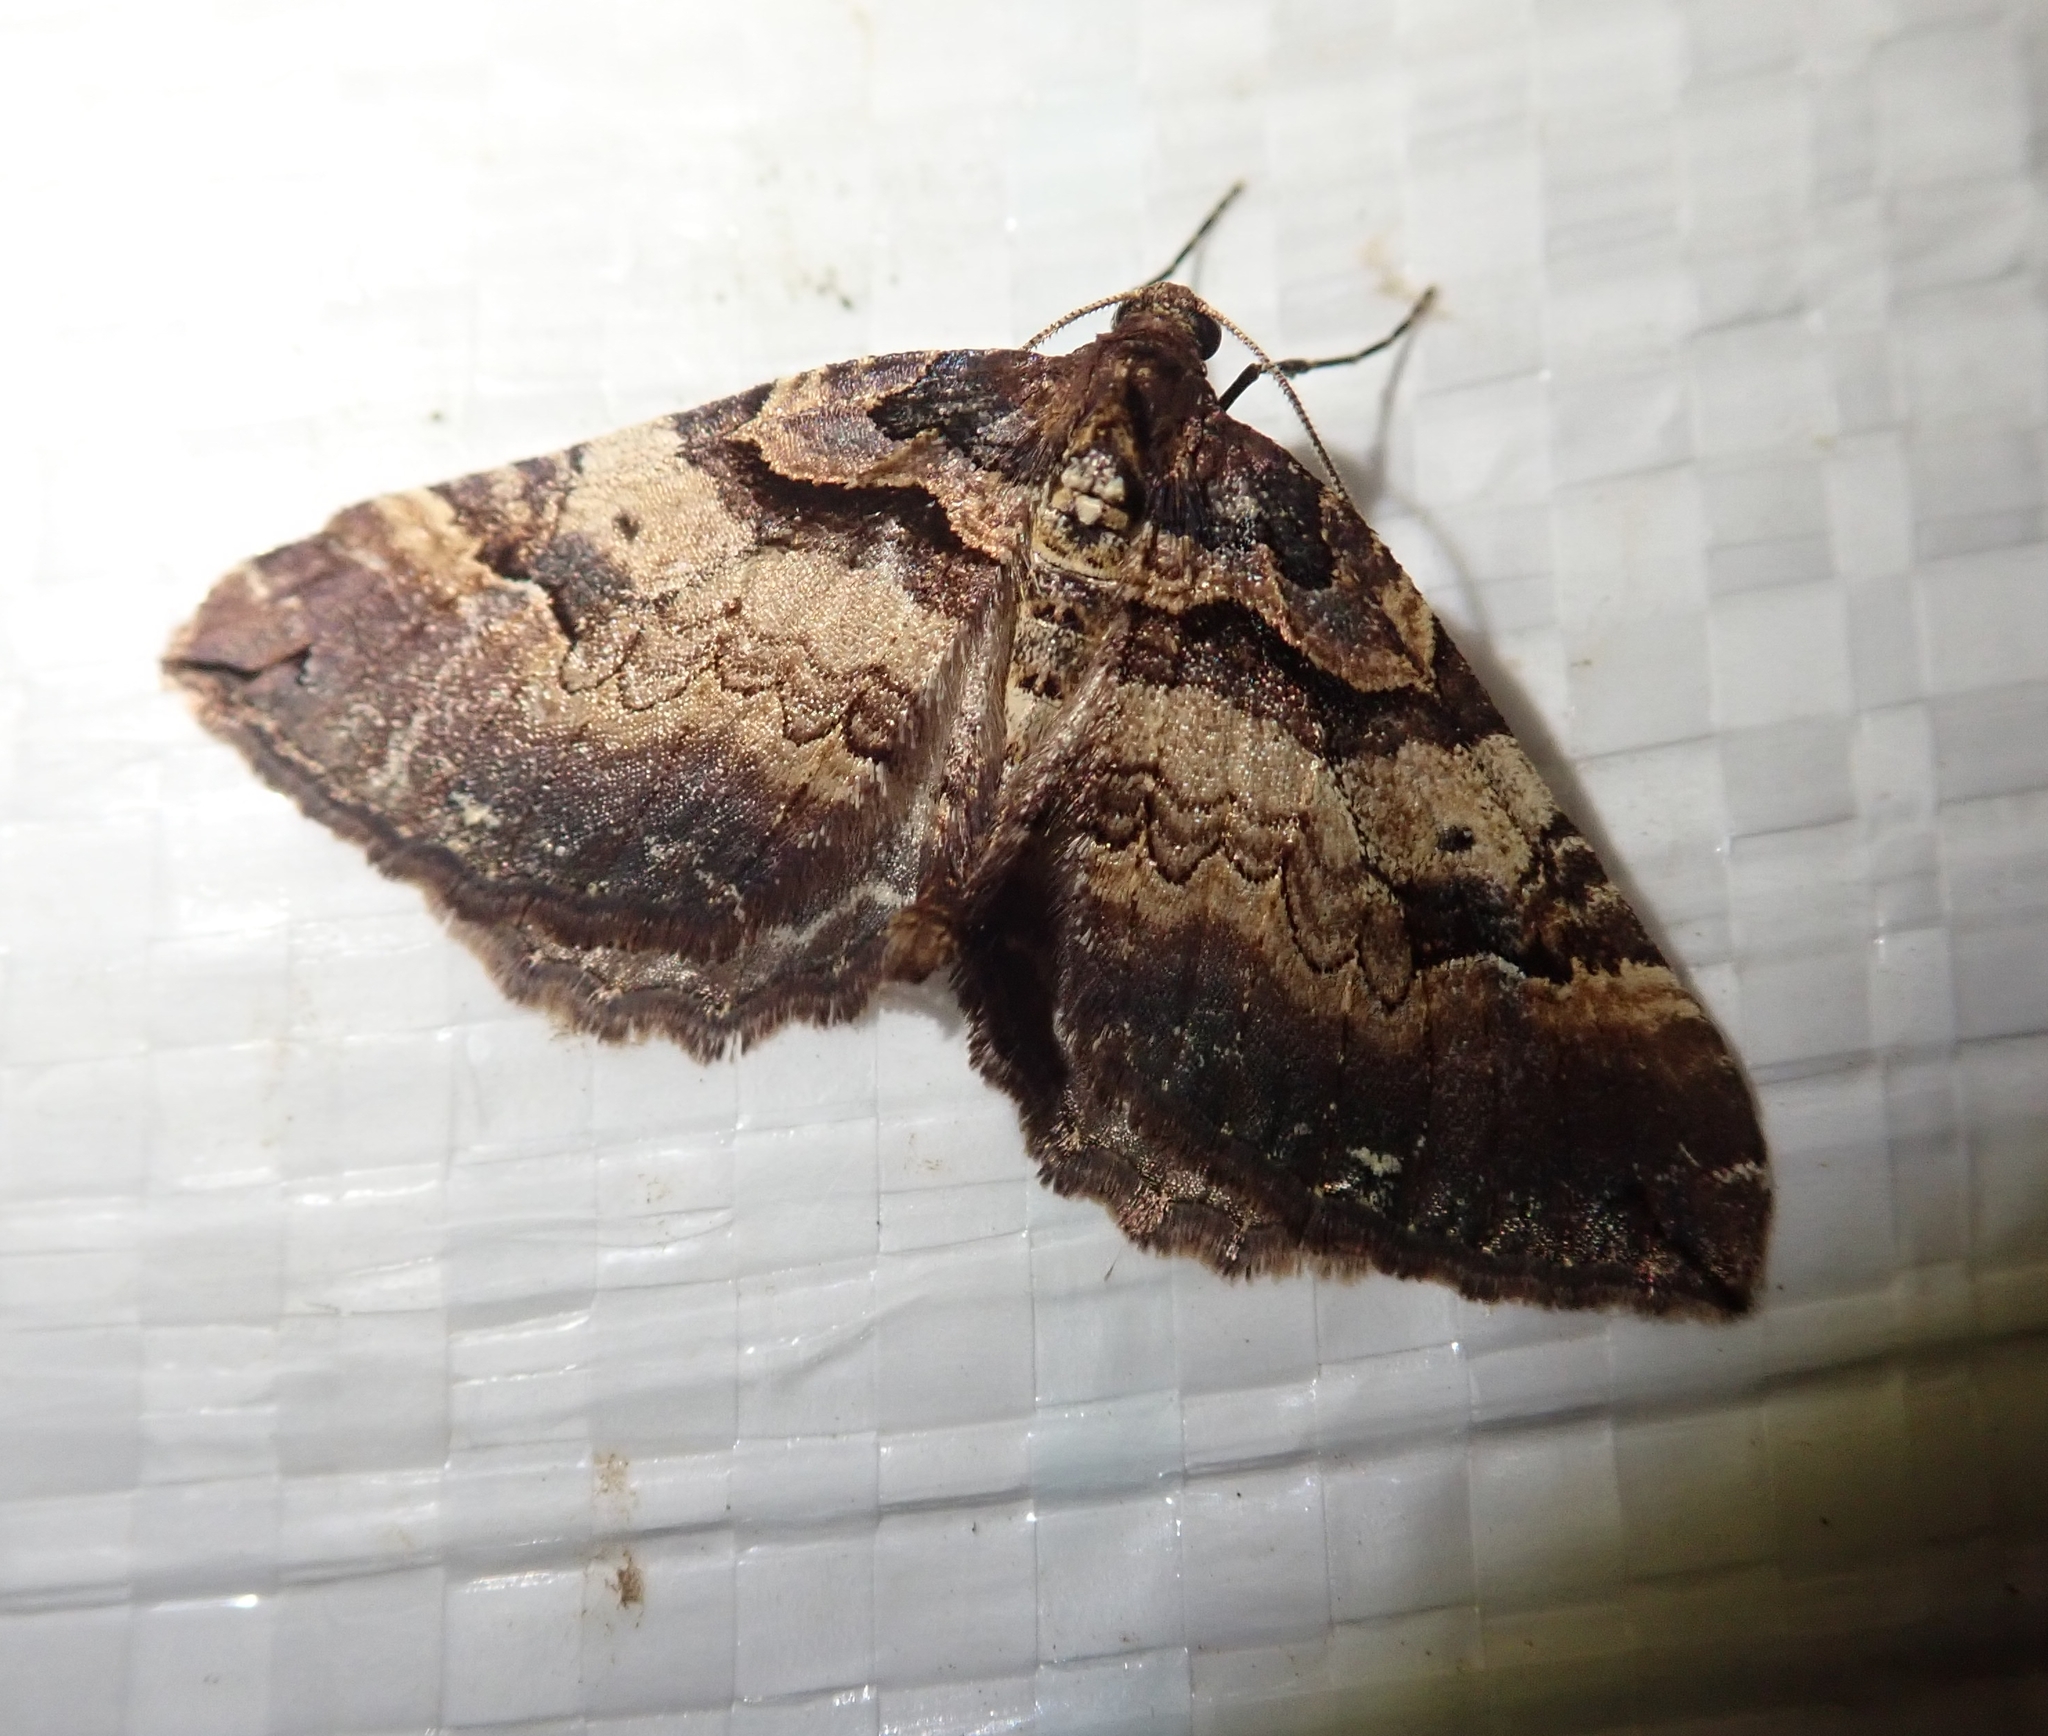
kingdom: Animalia
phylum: Arthropoda
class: Insecta
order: Lepidoptera
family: Geometridae
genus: Anticlea
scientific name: Anticlea badiata
